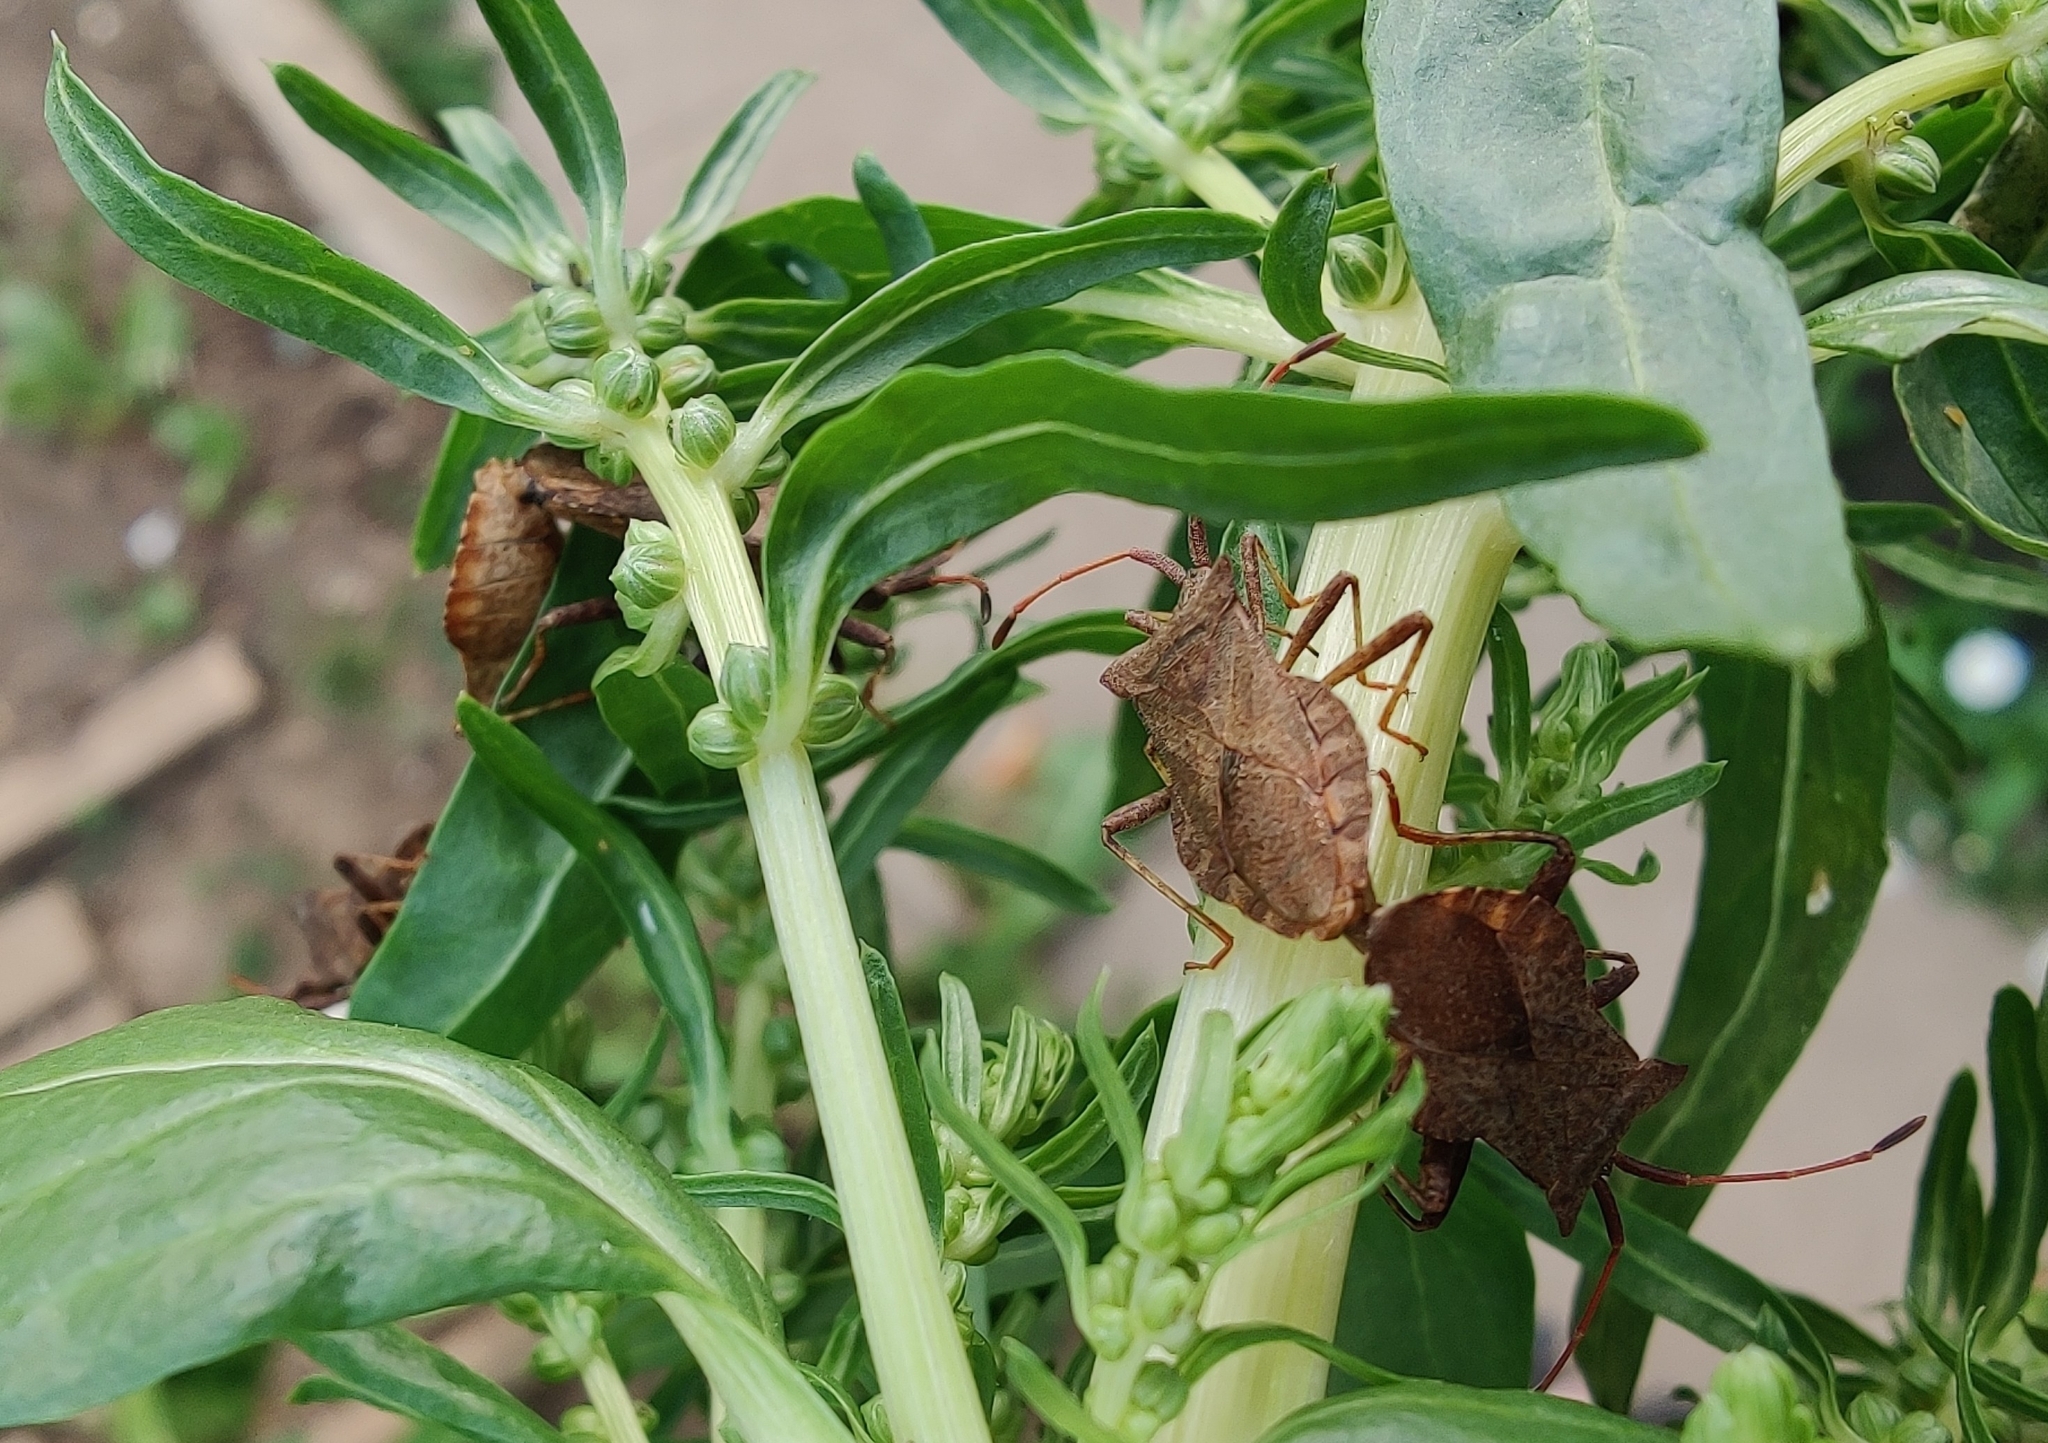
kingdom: Animalia
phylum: Arthropoda
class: Insecta
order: Hemiptera
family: Coreidae
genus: Coreus
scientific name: Coreus marginatus
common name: Dock bug
